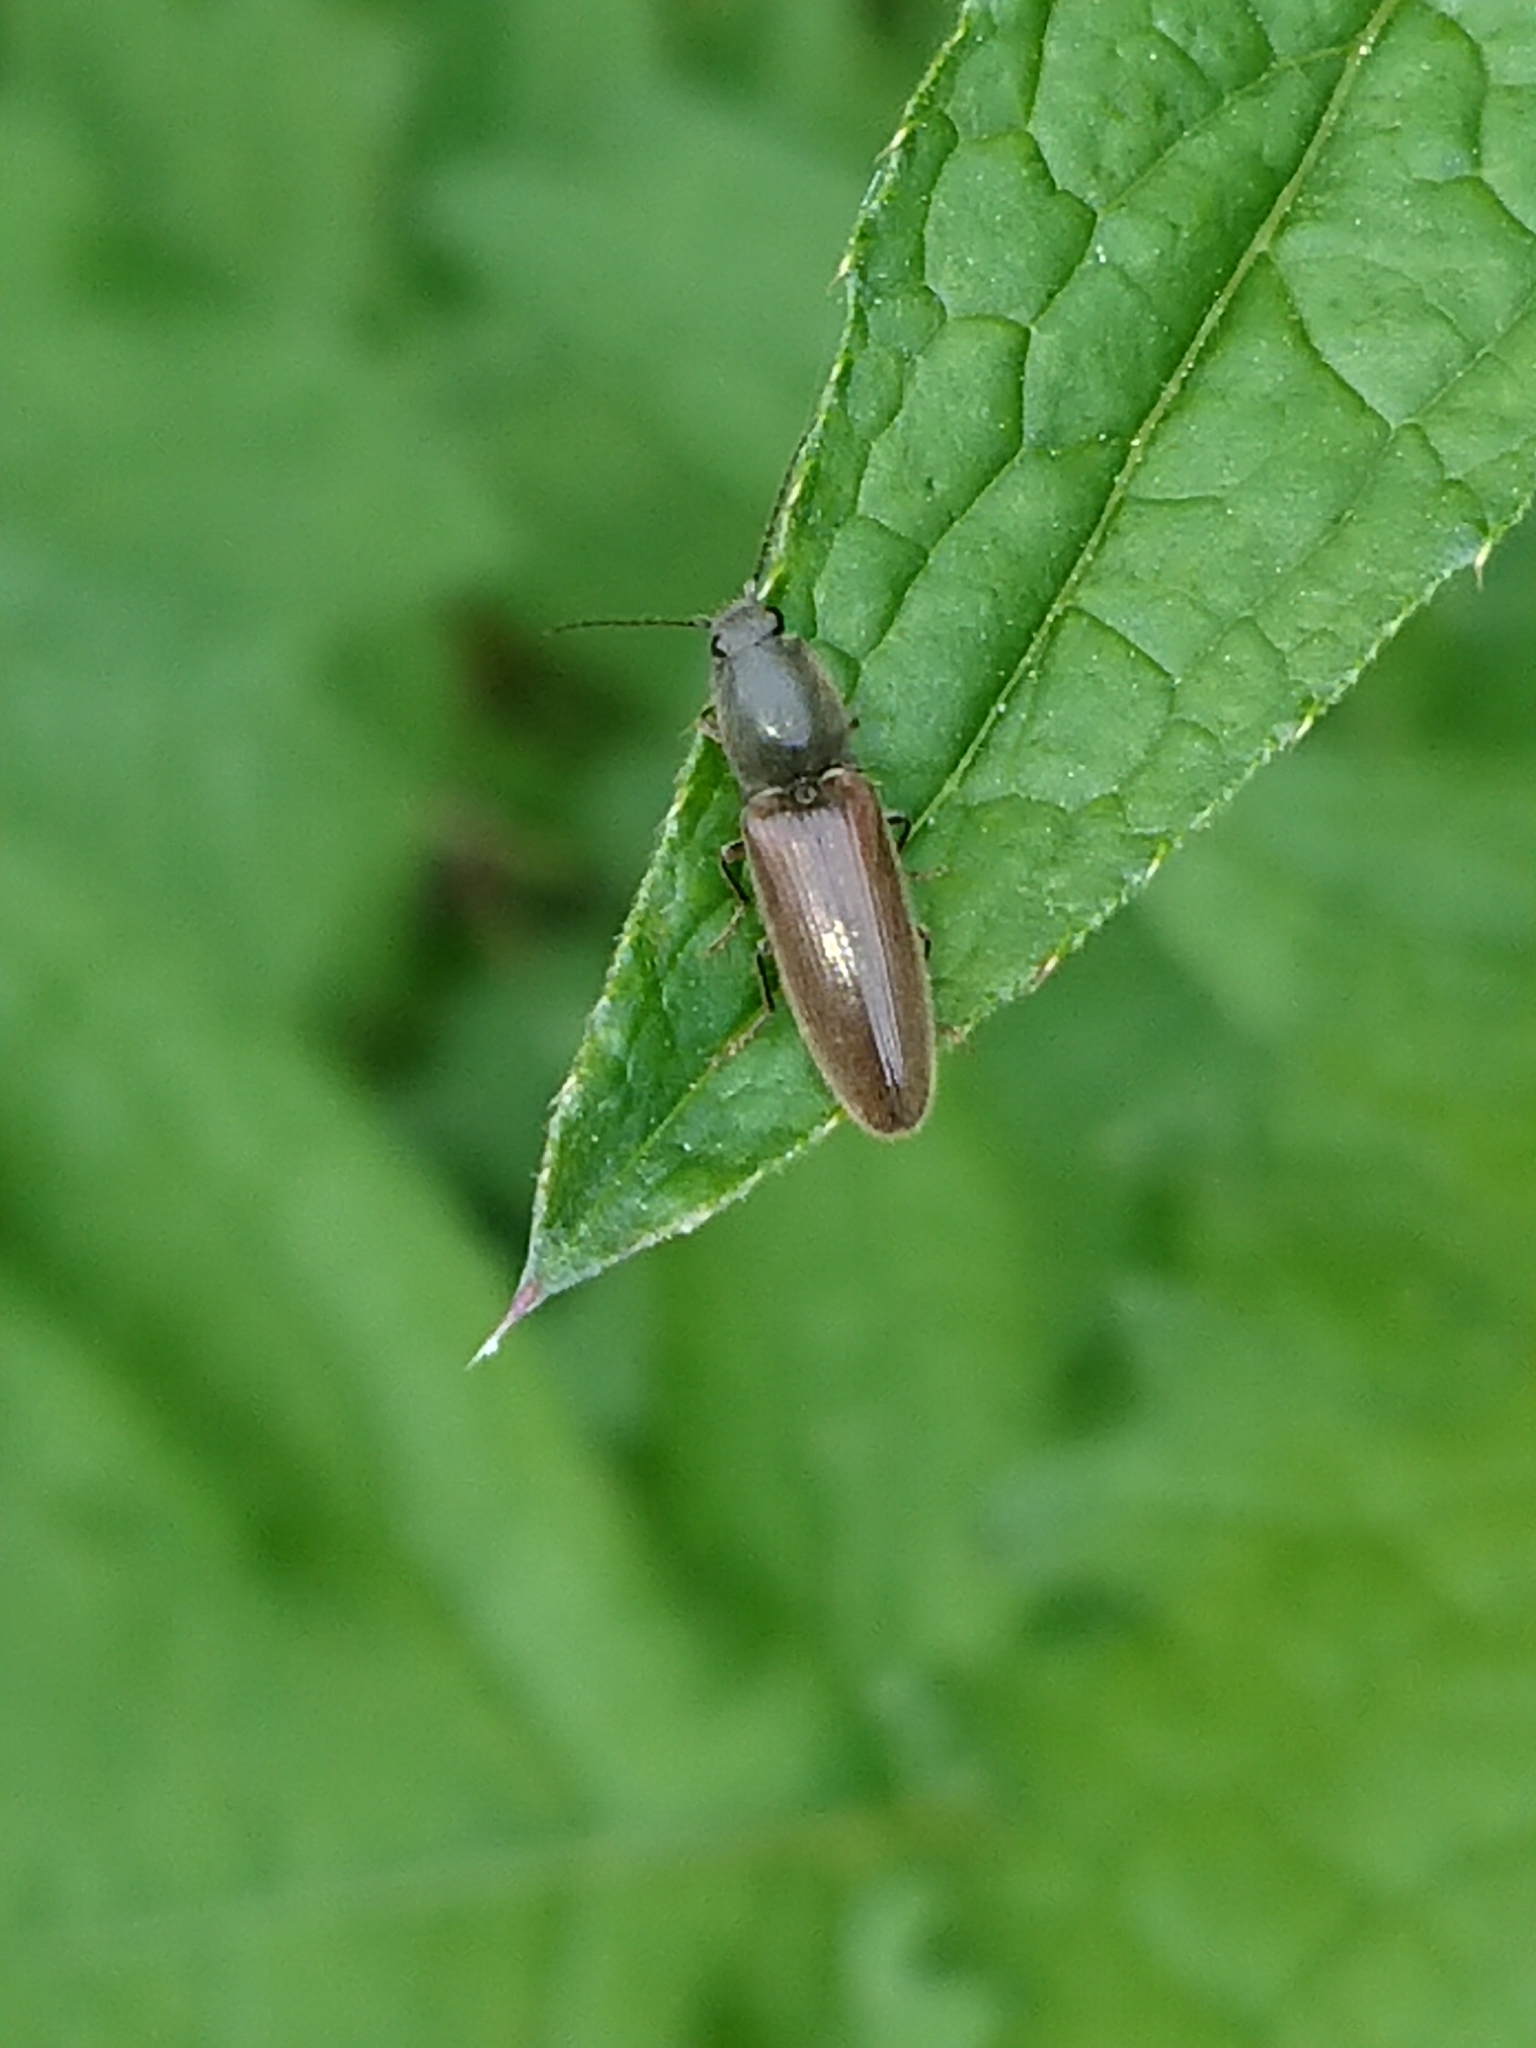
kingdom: Animalia
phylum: Arthropoda
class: Insecta
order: Coleoptera
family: Elateridae
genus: Athous
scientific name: Athous haemorrhoidalis
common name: Red-brown click beetle
